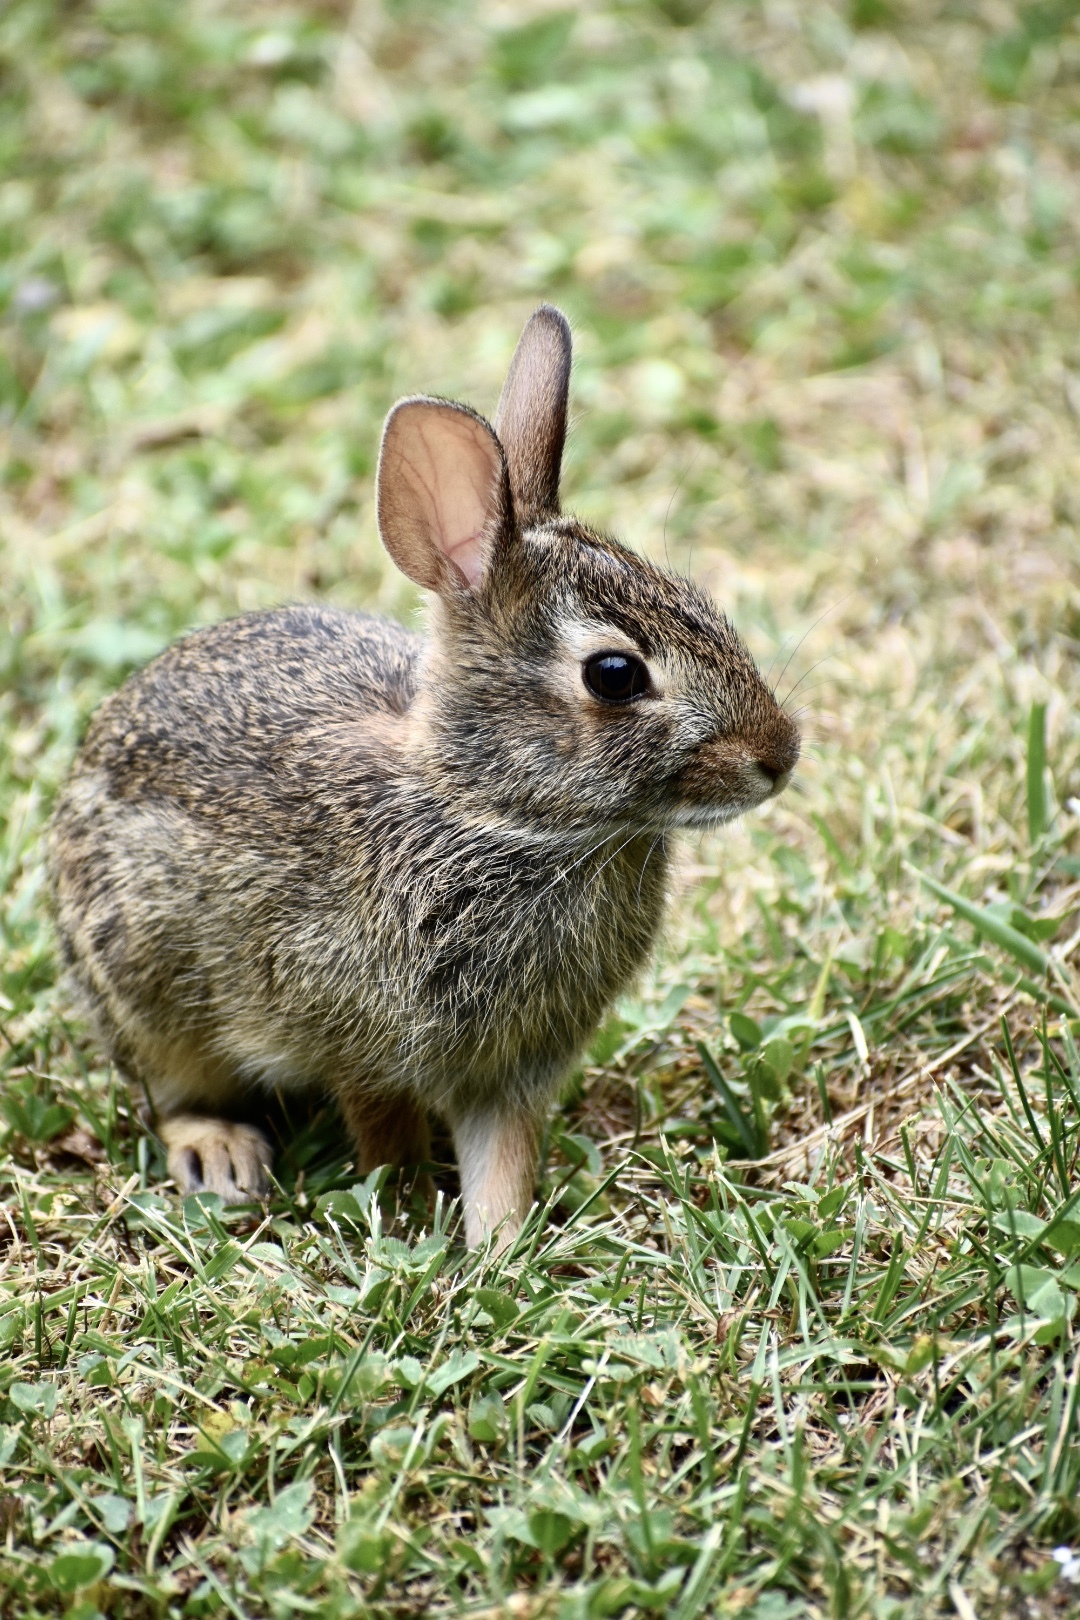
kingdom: Animalia
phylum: Chordata
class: Mammalia
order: Lagomorpha
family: Leporidae
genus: Sylvilagus
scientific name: Sylvilagus floridanus
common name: Eastern cottontail
